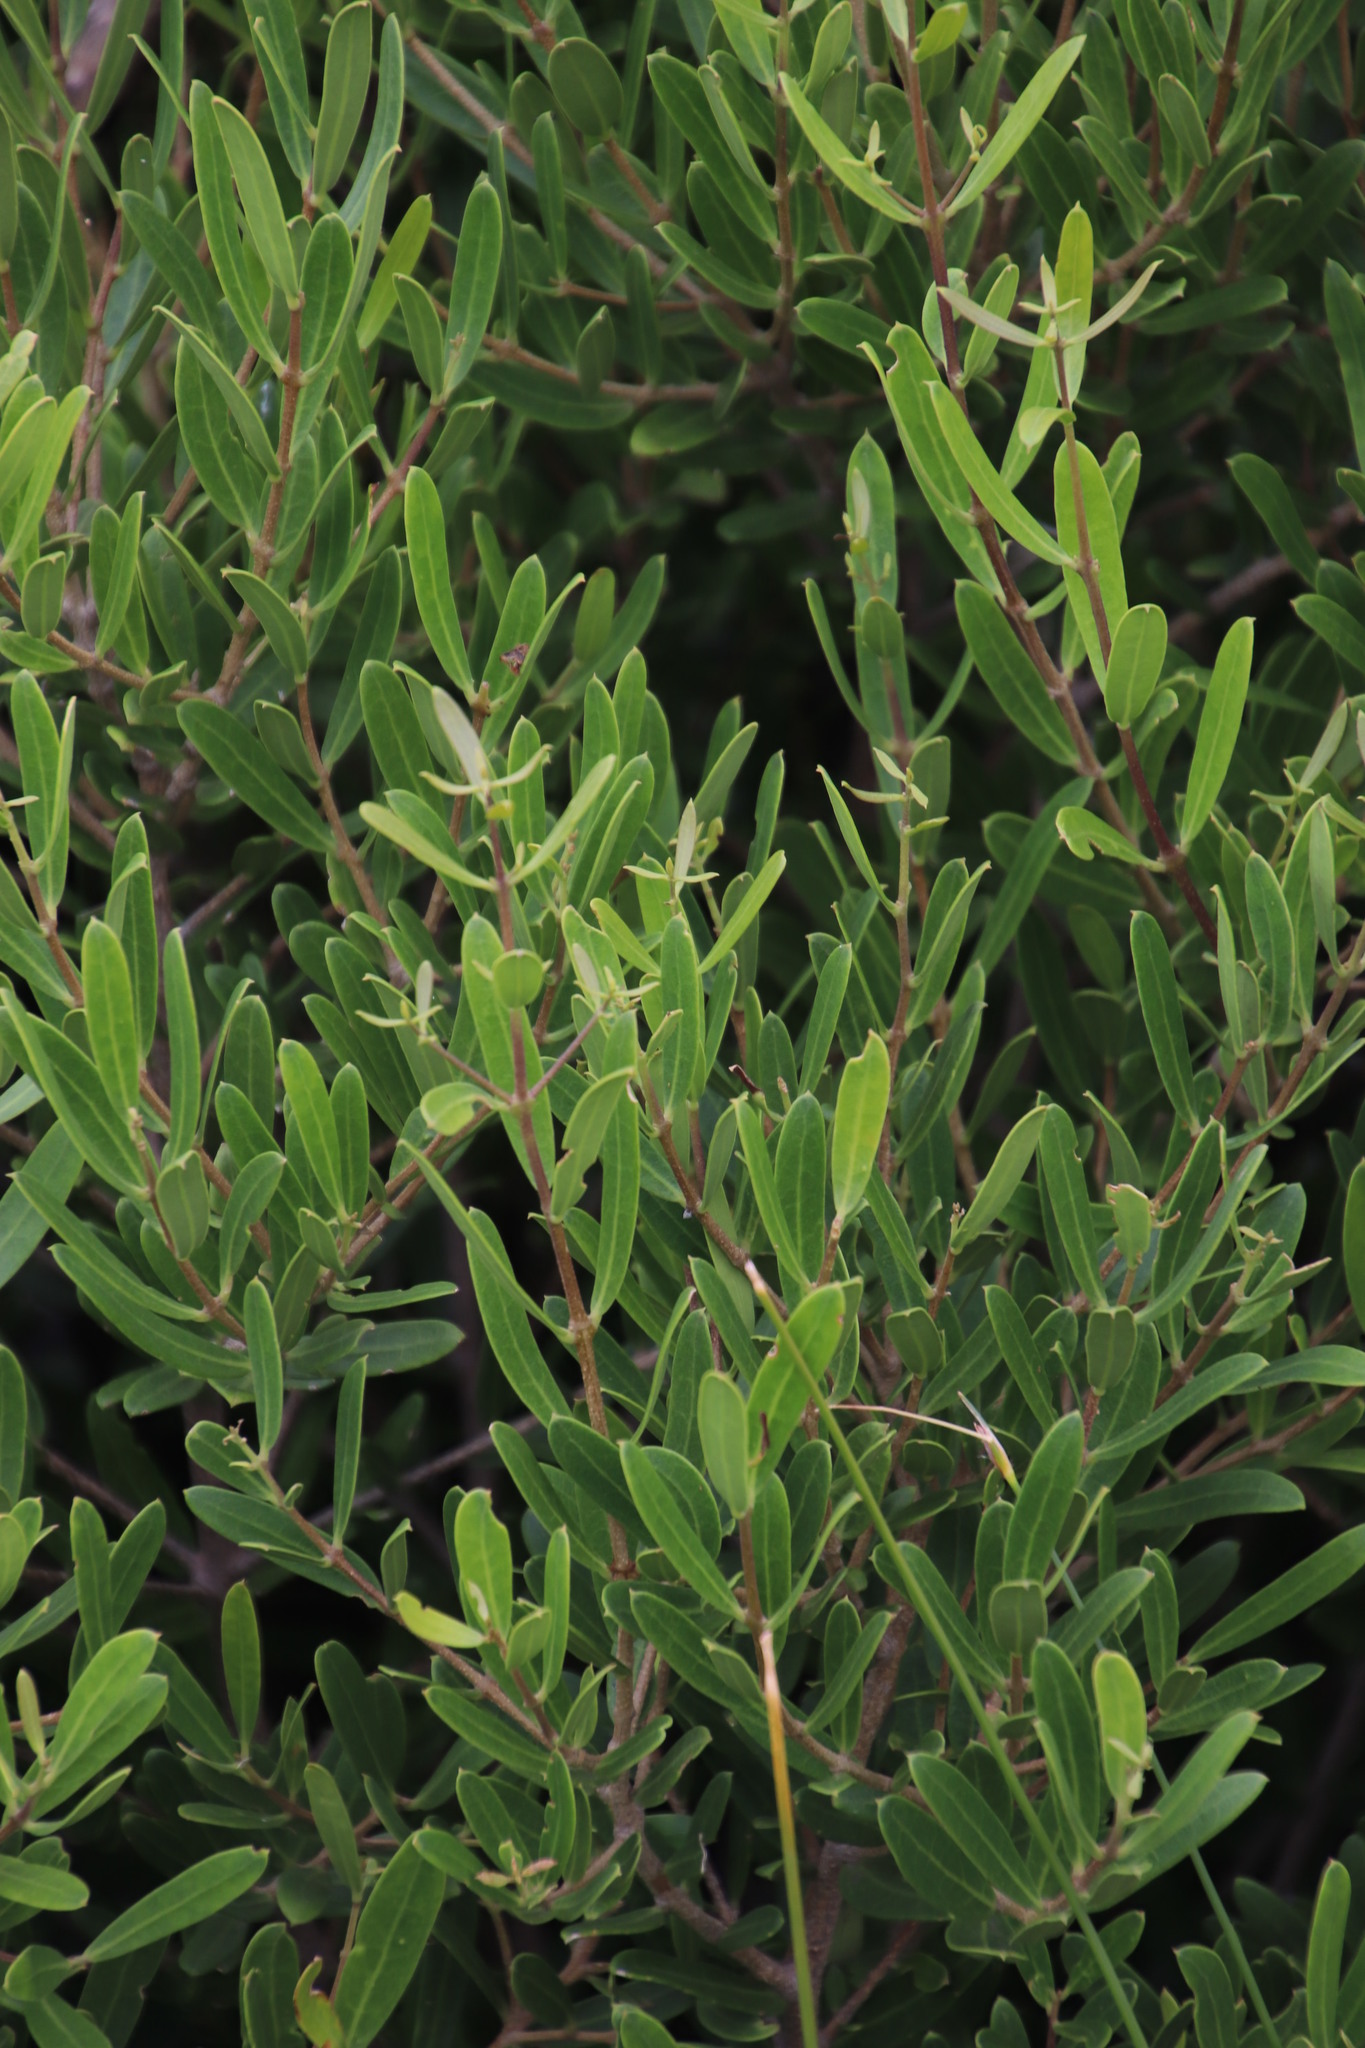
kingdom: Plantae
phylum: Tracheophyta
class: Magnoliopsida
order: Lamiales
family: Oleaceae
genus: Olea
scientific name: Olea exasperata
